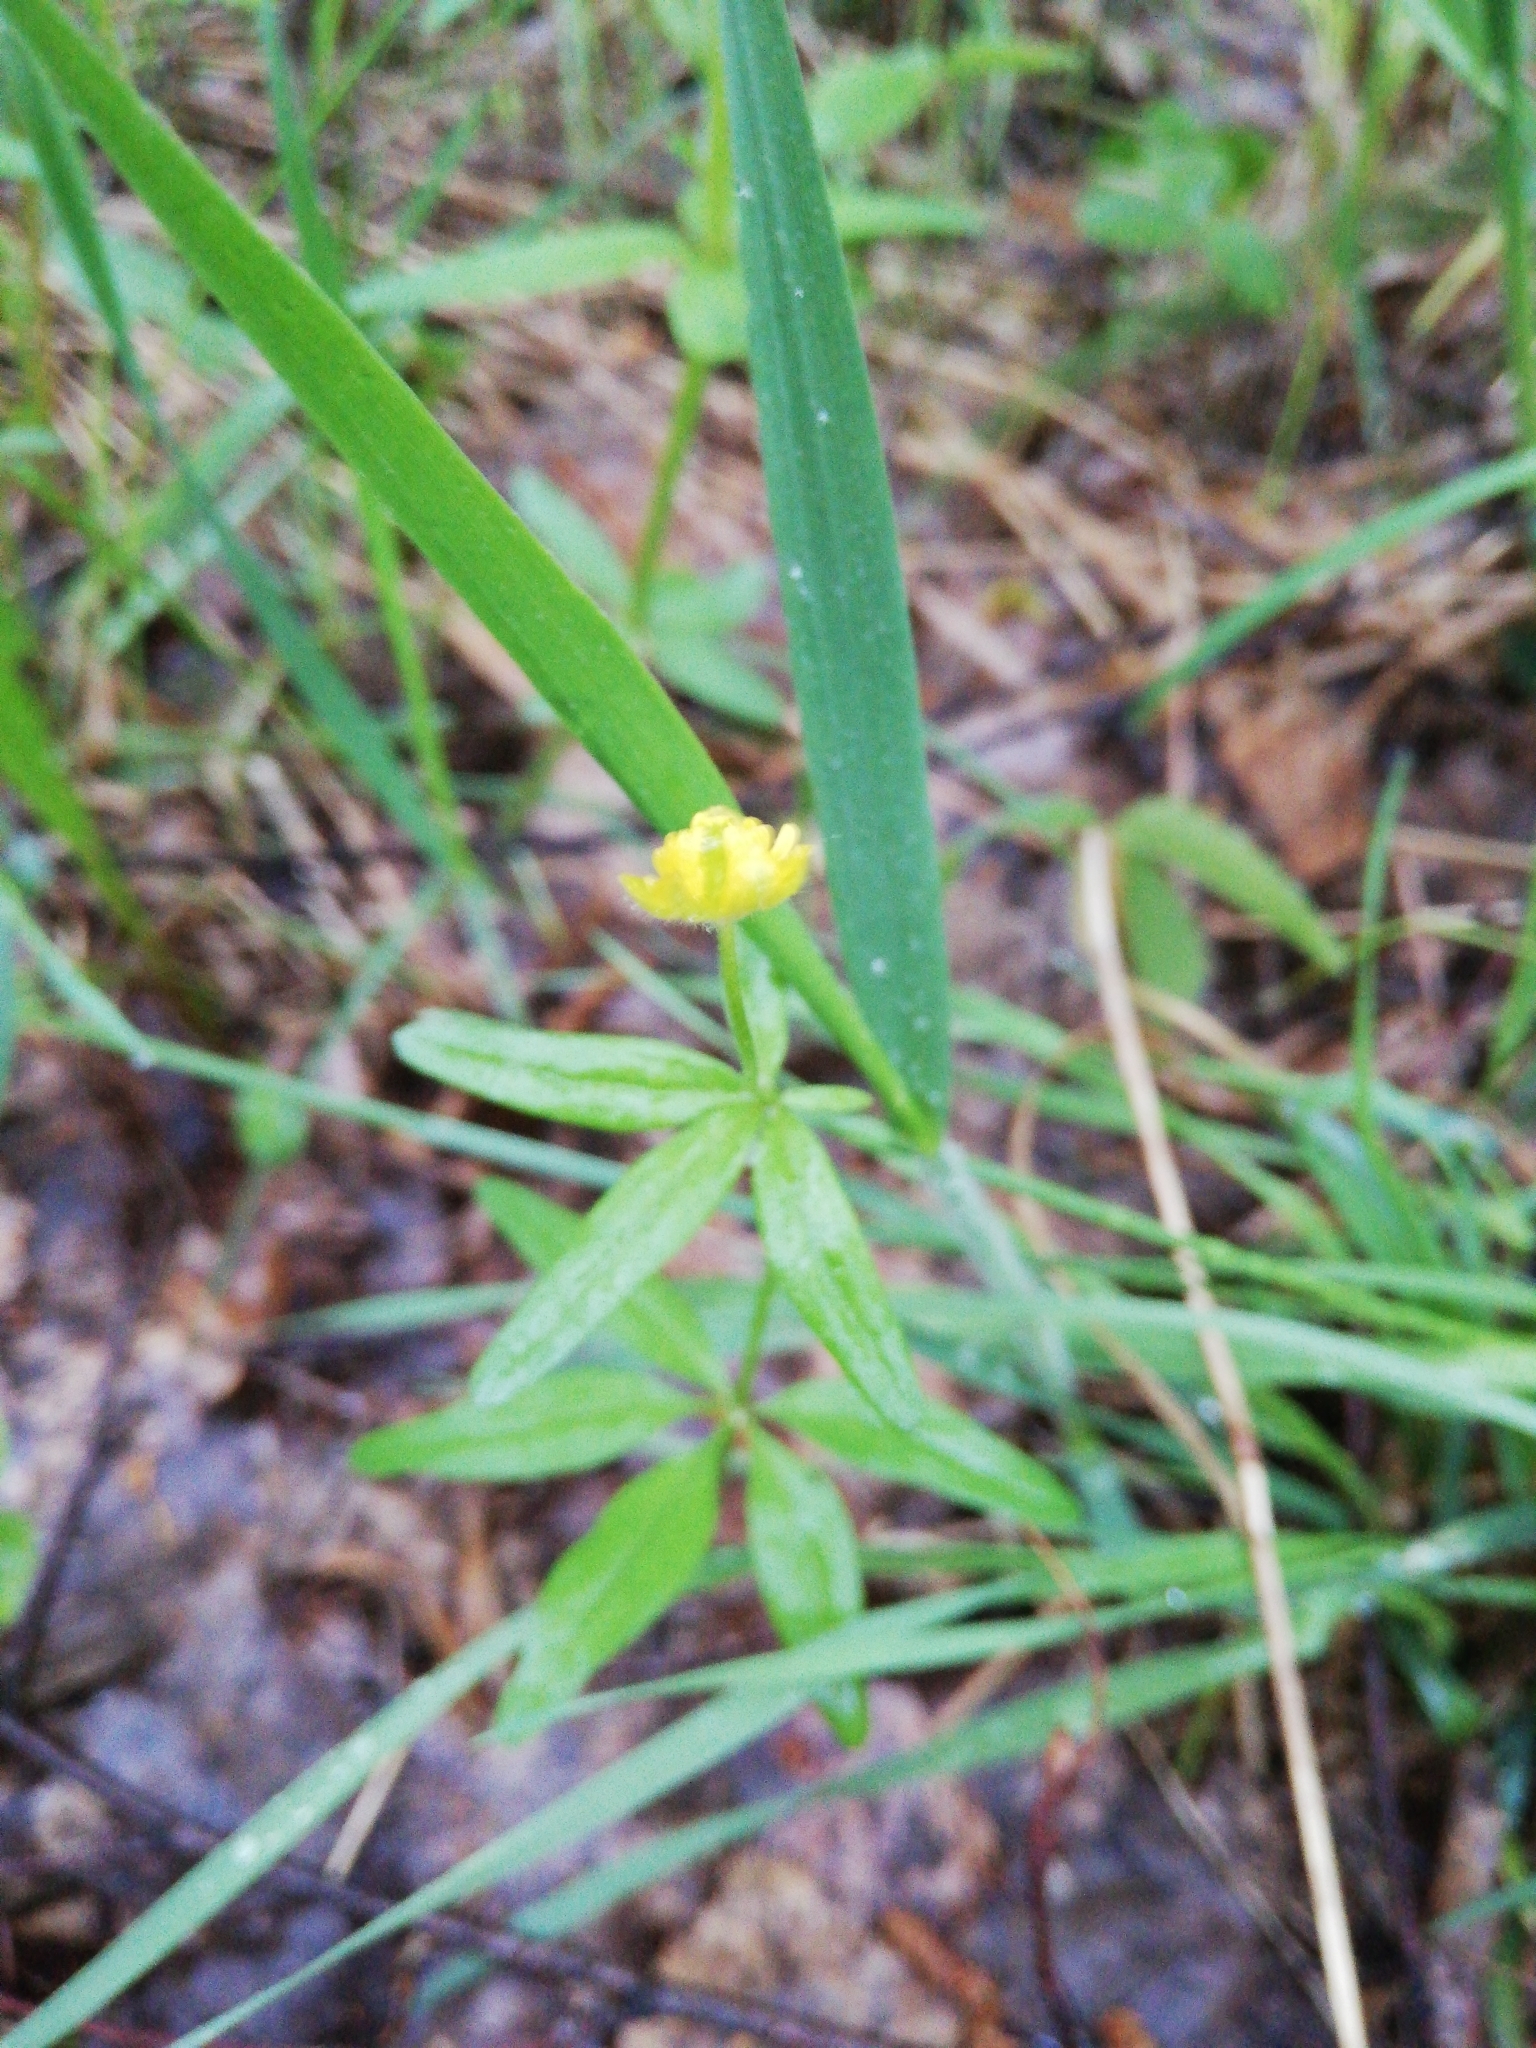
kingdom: Plantae
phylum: Tracheophyta
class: Magnoliopsida
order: Ranunculales
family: Ranunculaceae
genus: Ranunculus
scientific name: Ranunculus monophyllus
